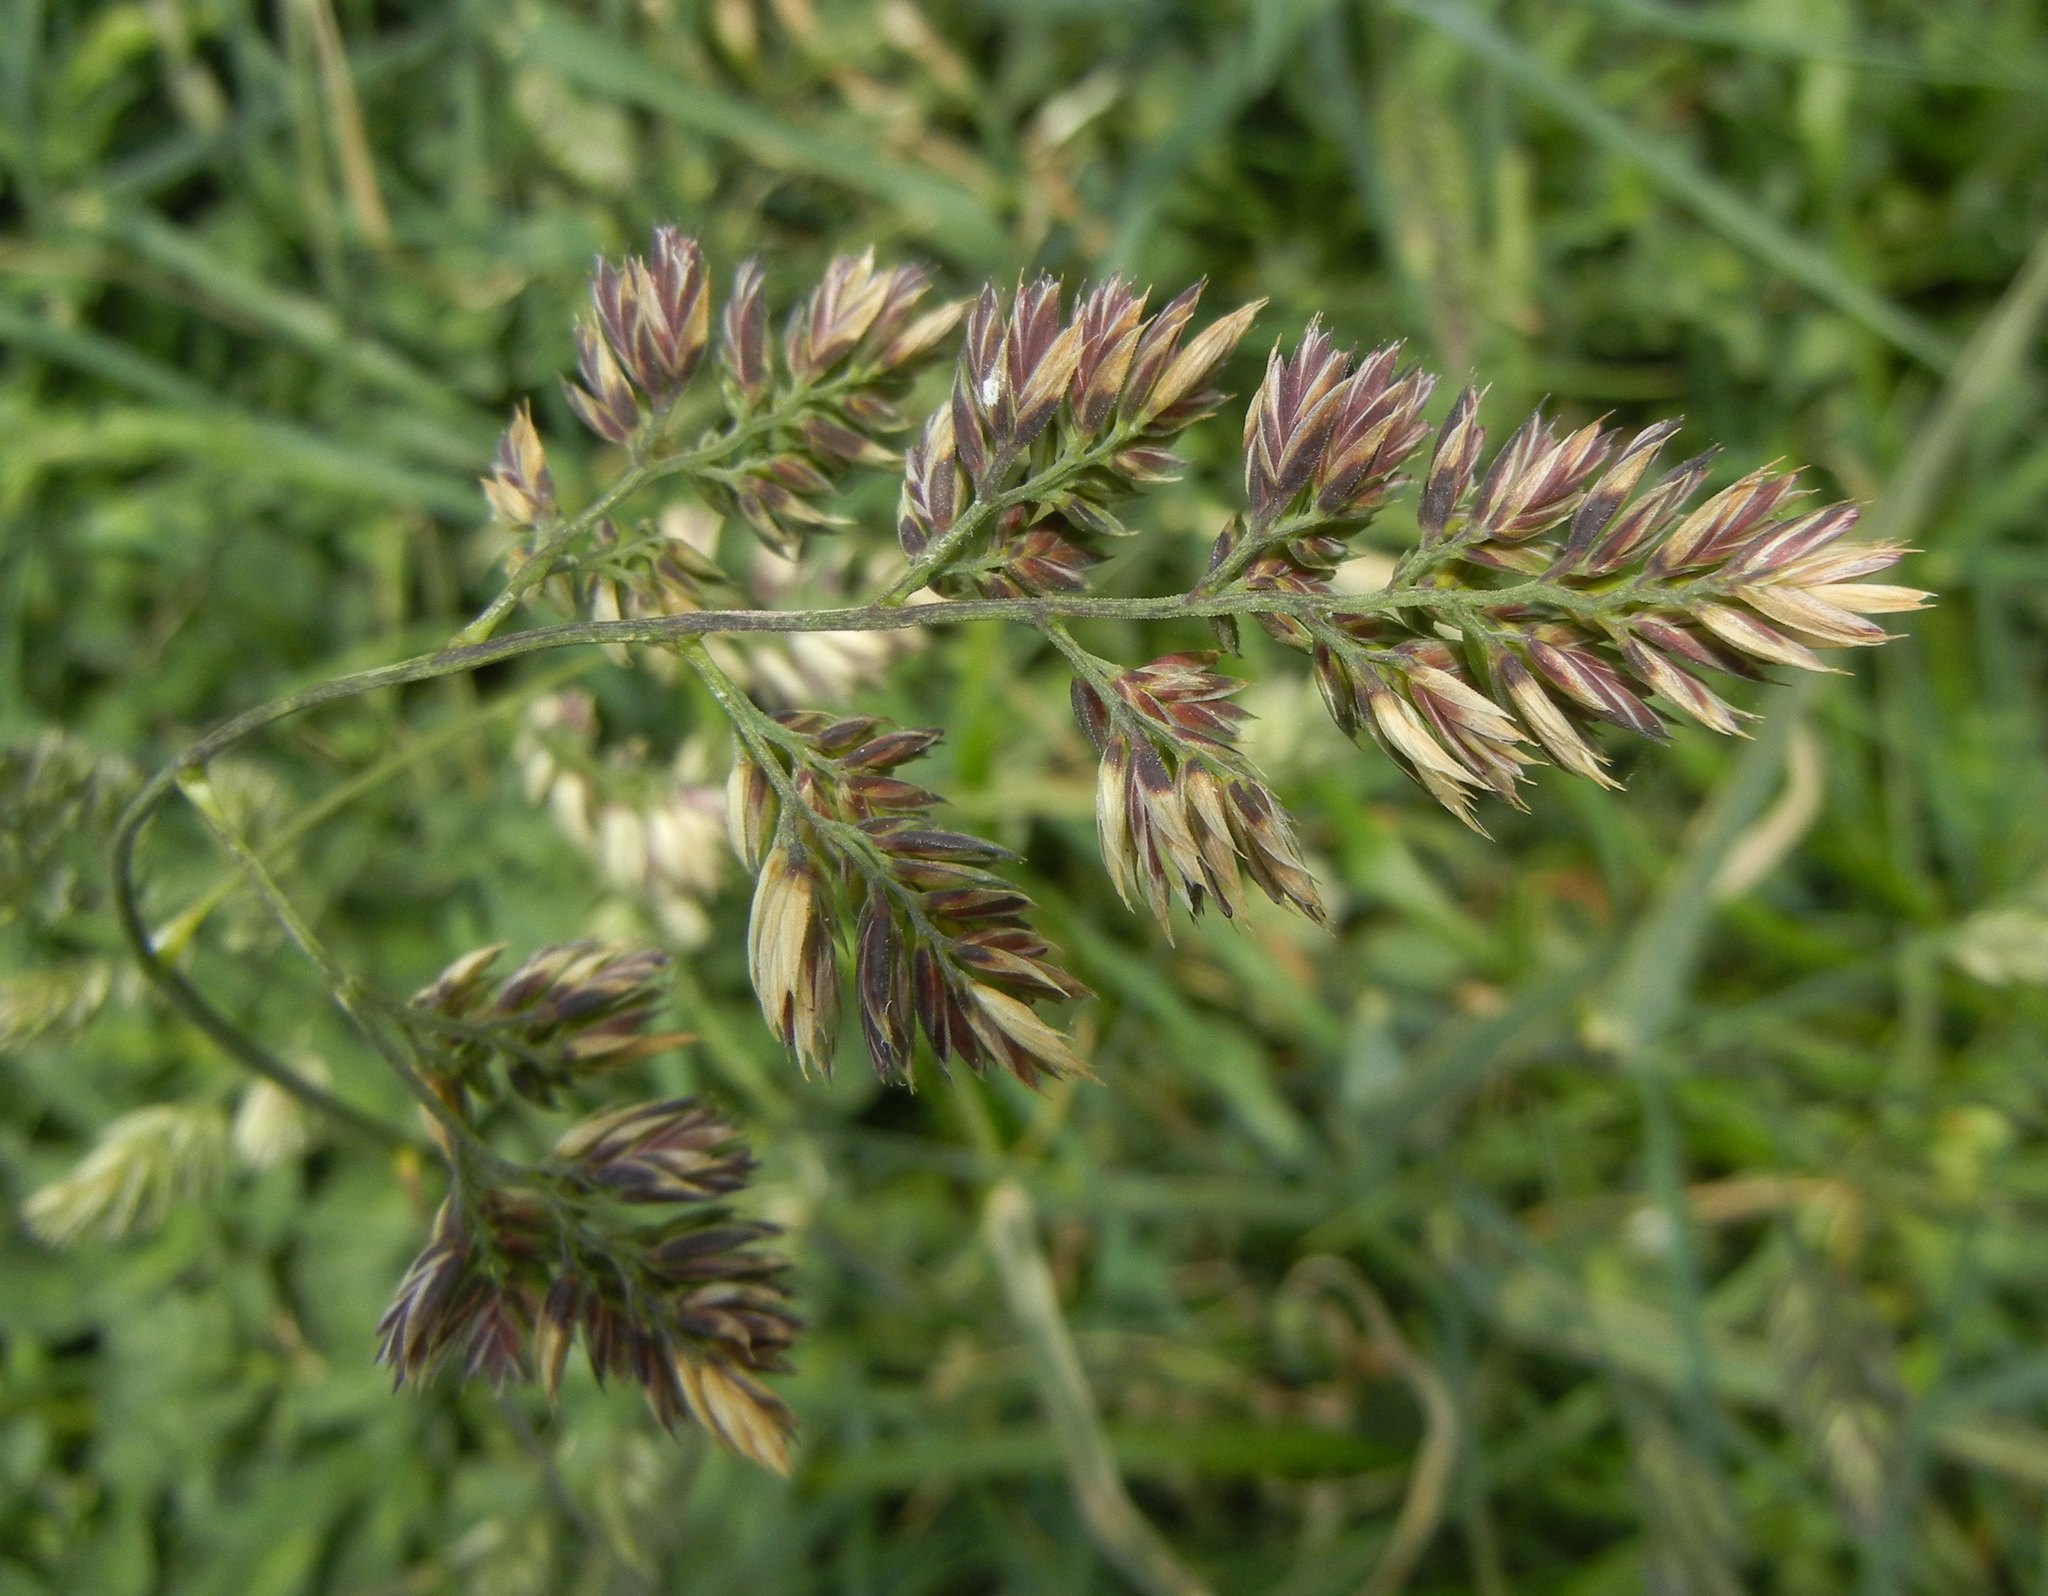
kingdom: Plantae
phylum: Tracheophyta
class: Liliopsida
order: Poales
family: Poaceae
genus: Dactylis
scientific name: Dactylis glomerata
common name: Orchardgrass
